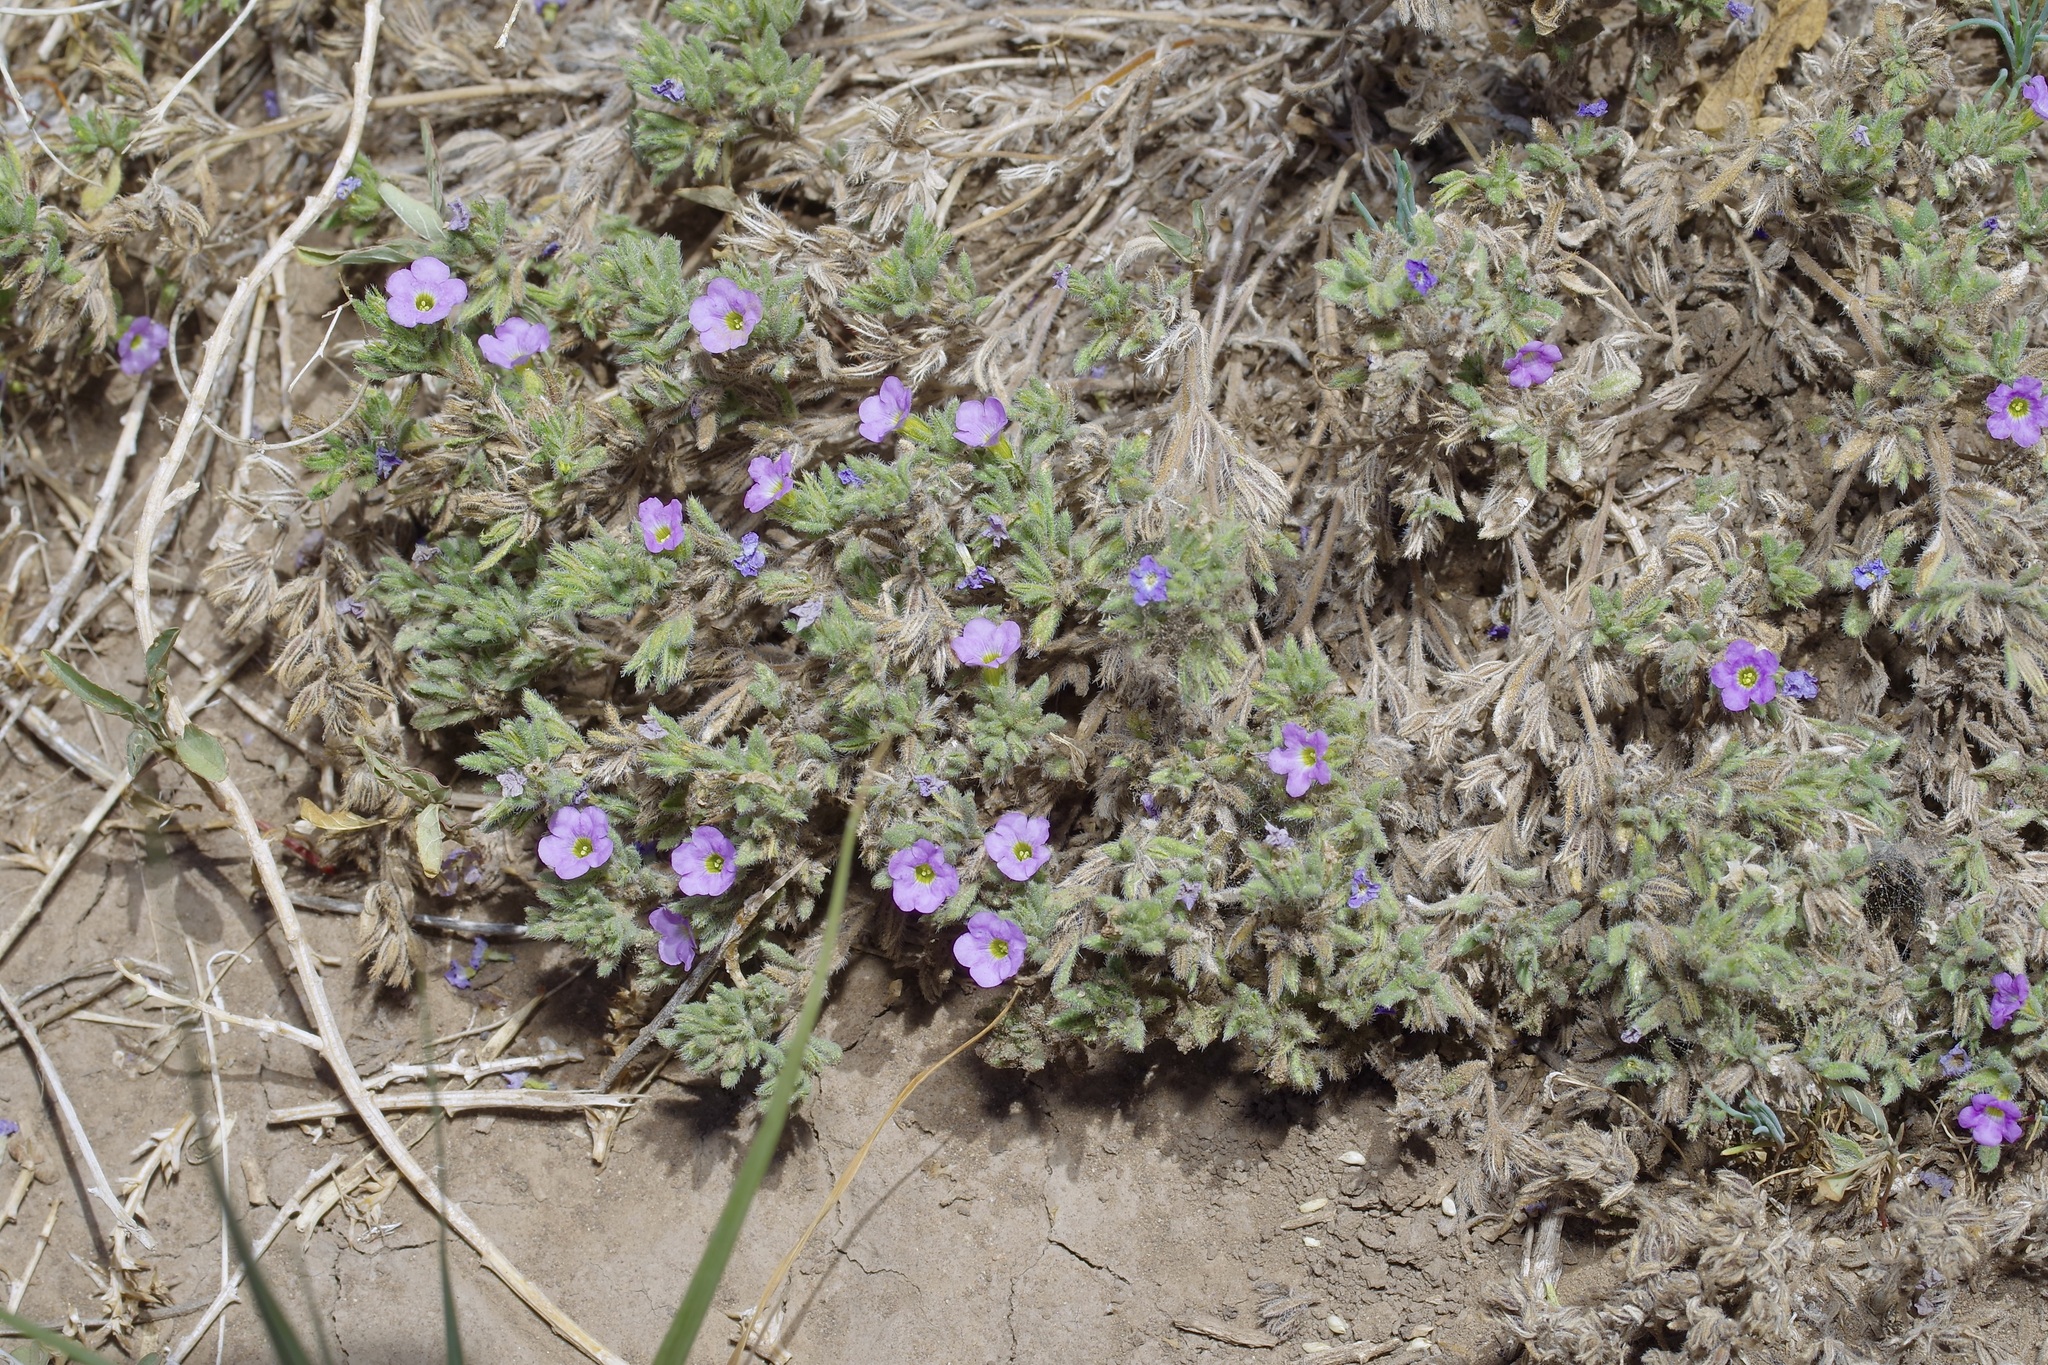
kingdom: Plantae
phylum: Tracheophyta
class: Magnoliopsida
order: Boraginales
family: Namaceae
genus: Nama
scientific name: Nama hispida
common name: Bristly nama
